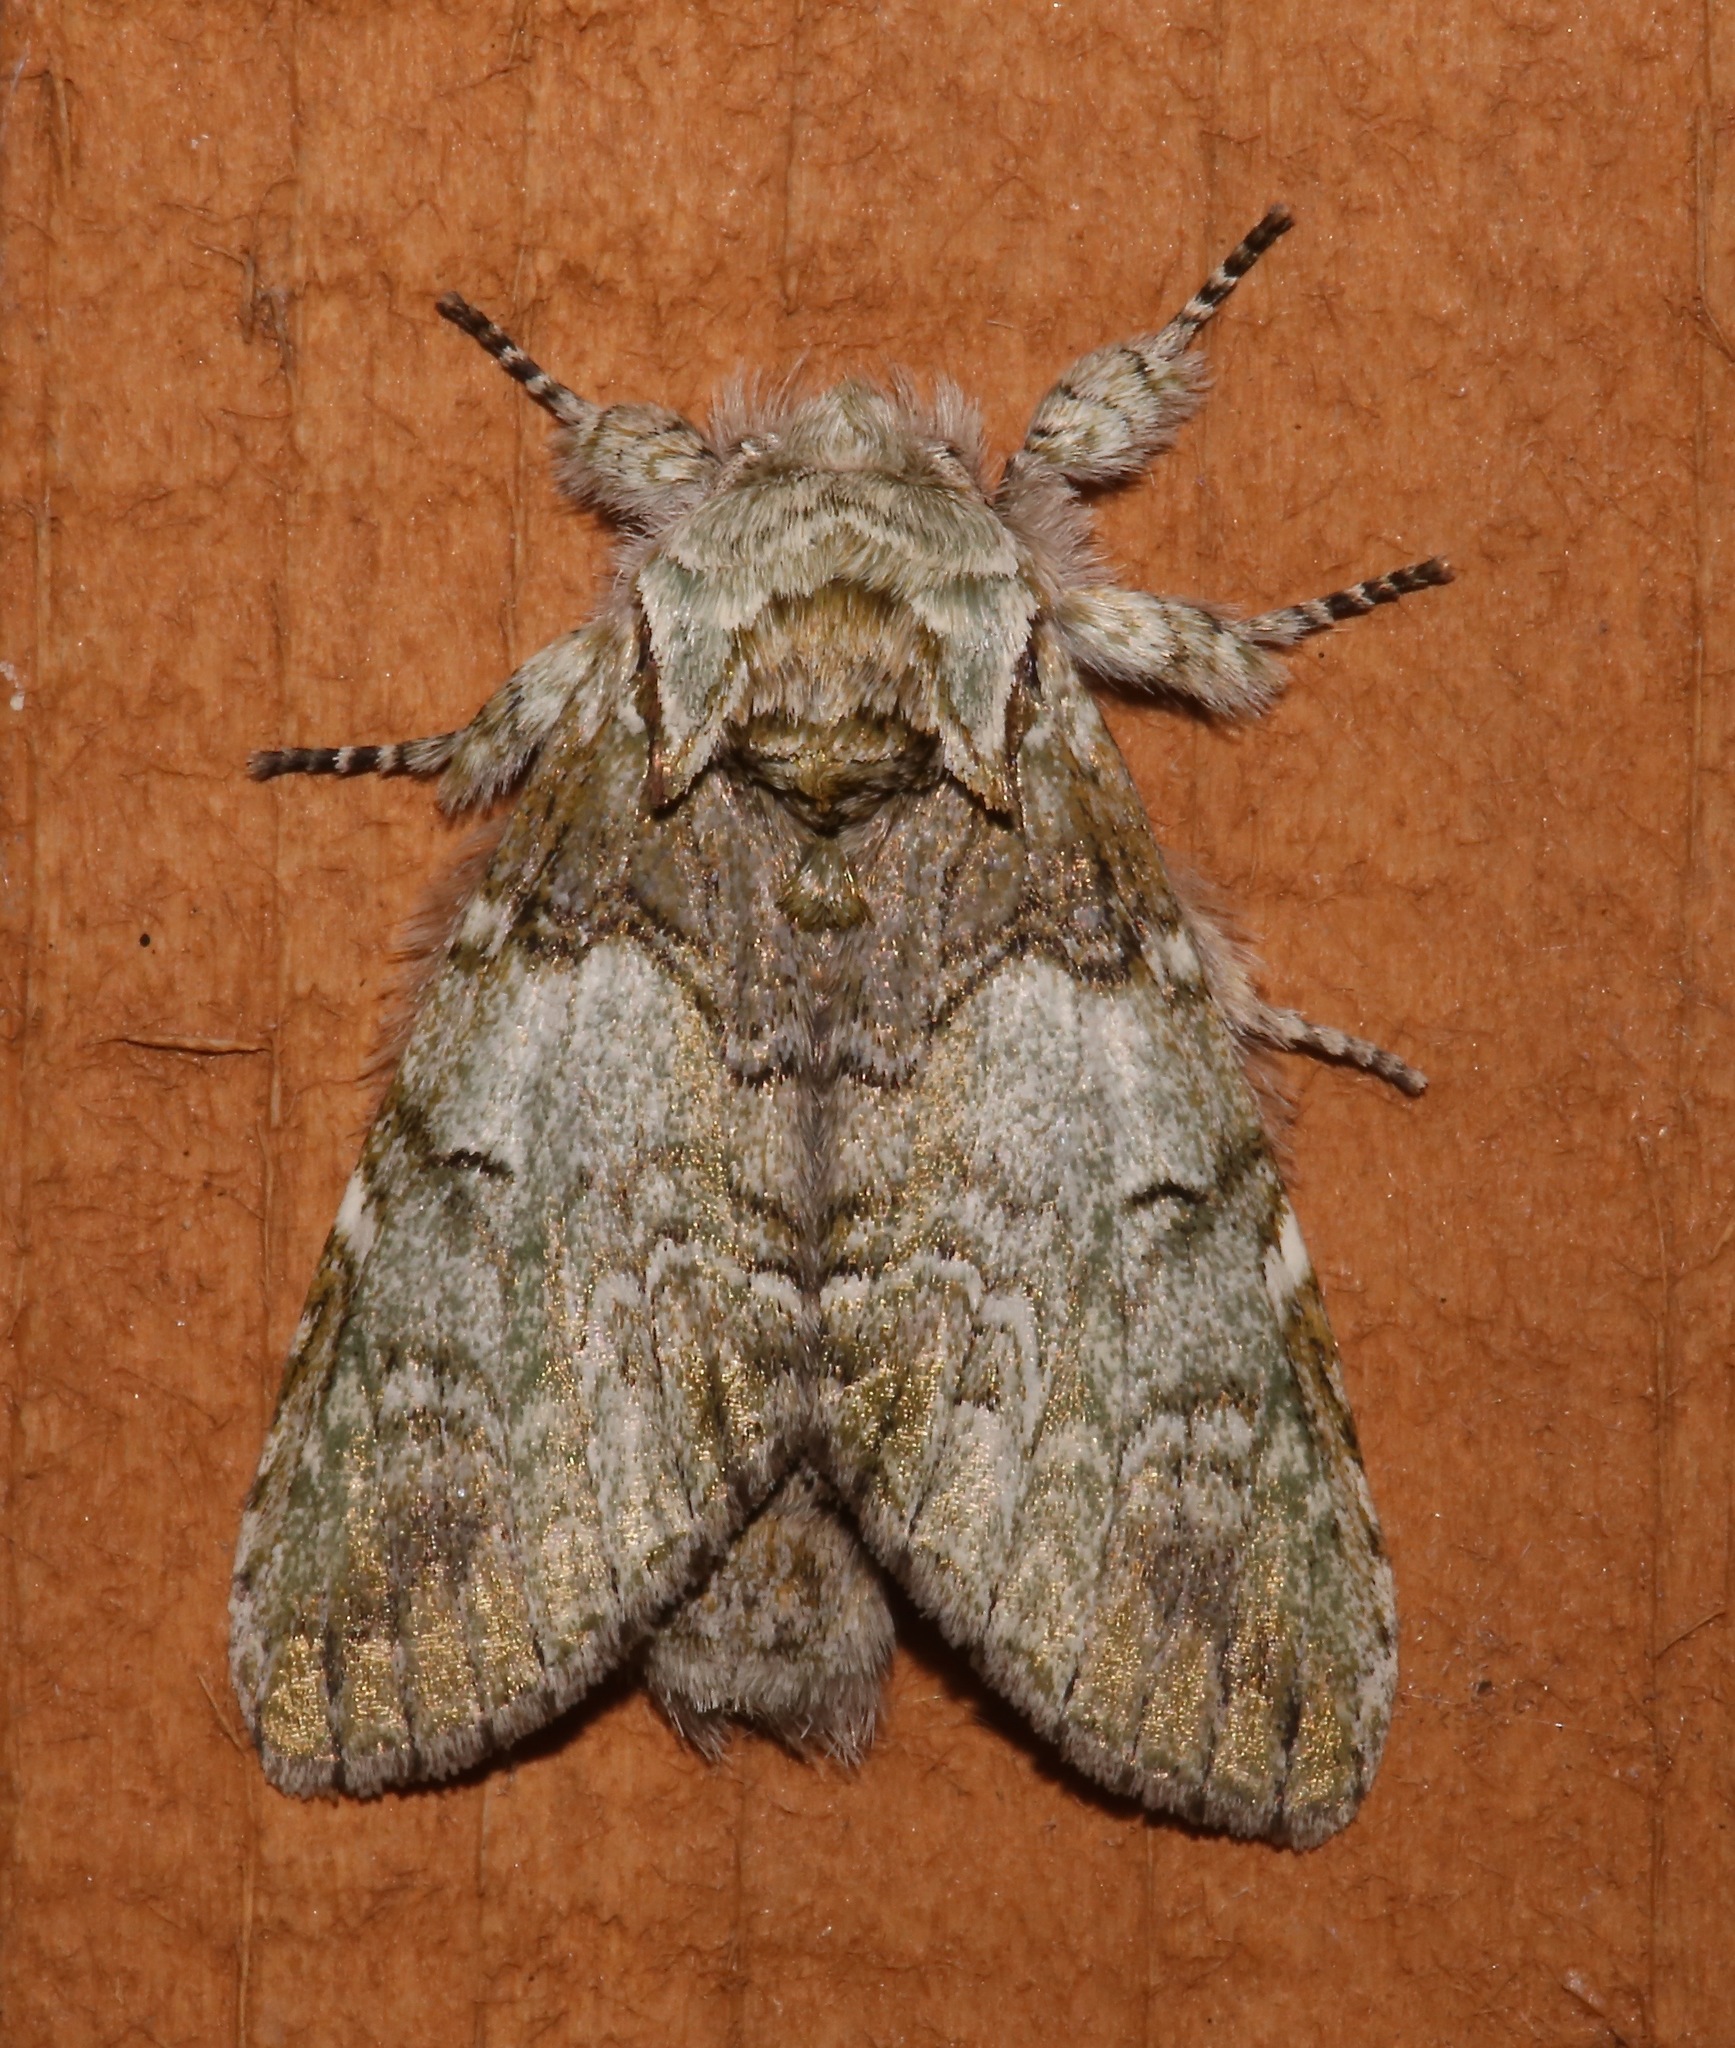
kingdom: Animalia
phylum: Arthropoda
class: Insecta
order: Lepidoptera
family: Notodontidae
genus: Macrurocampa
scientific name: Macrurocampa marthesia
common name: Mottled prominent
